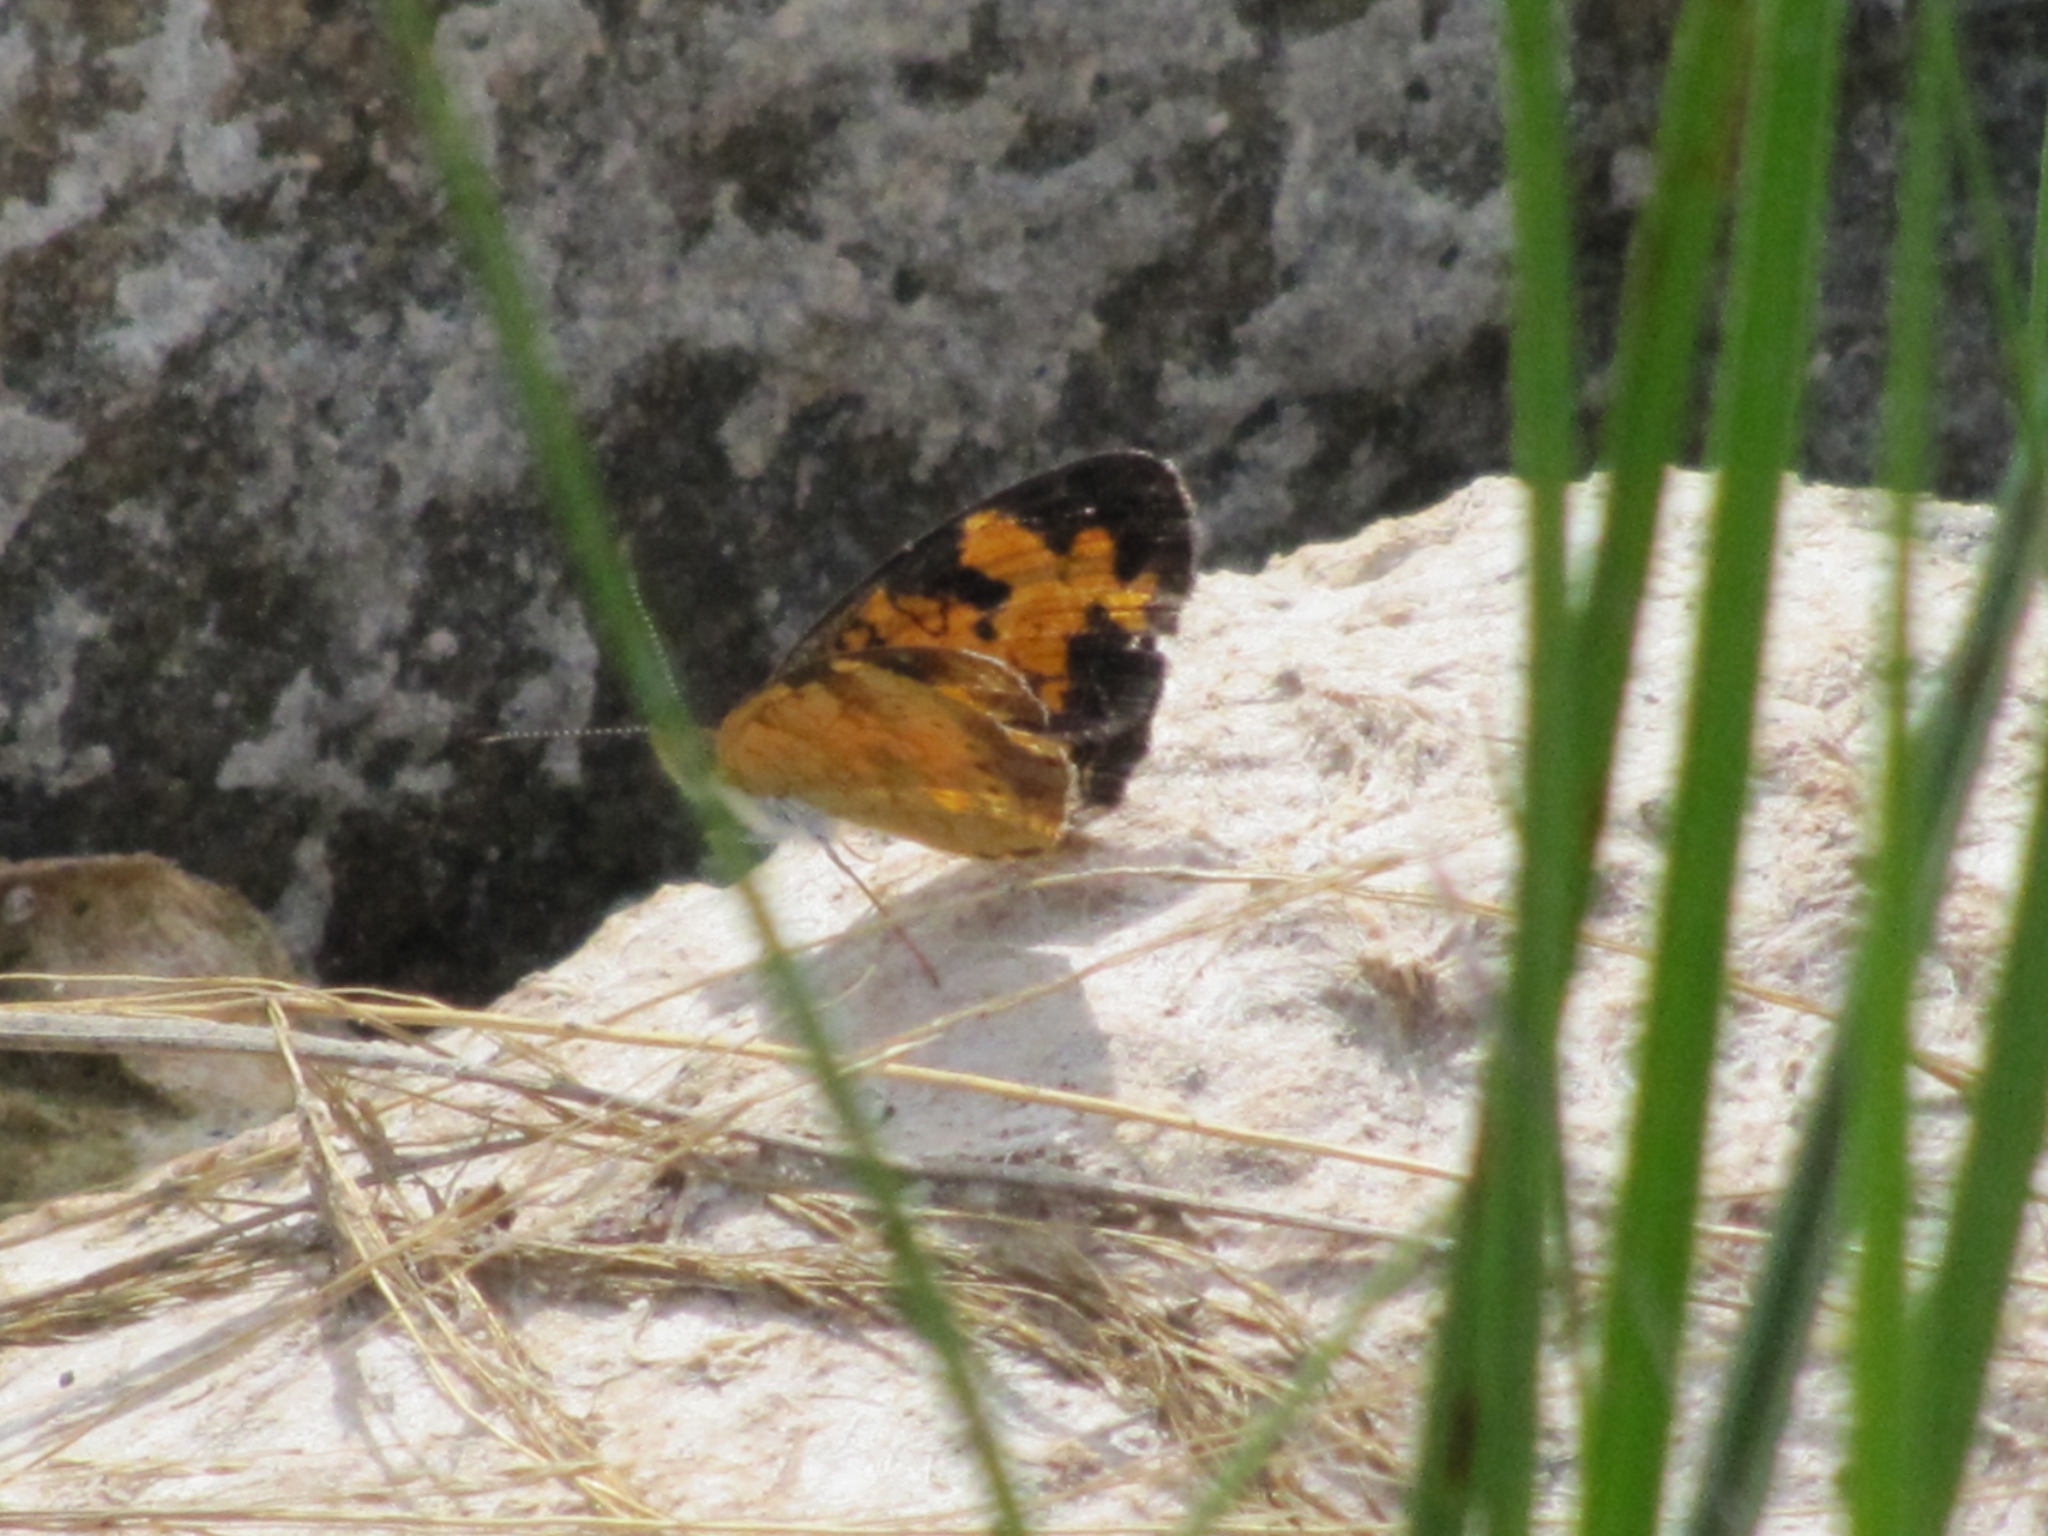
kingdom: Animalia
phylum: Arthropoda
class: Insecta
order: Lepidoptera
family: Nymphalidae
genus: Phyciodes
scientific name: Phyciodes tharos
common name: Pearl crescent
